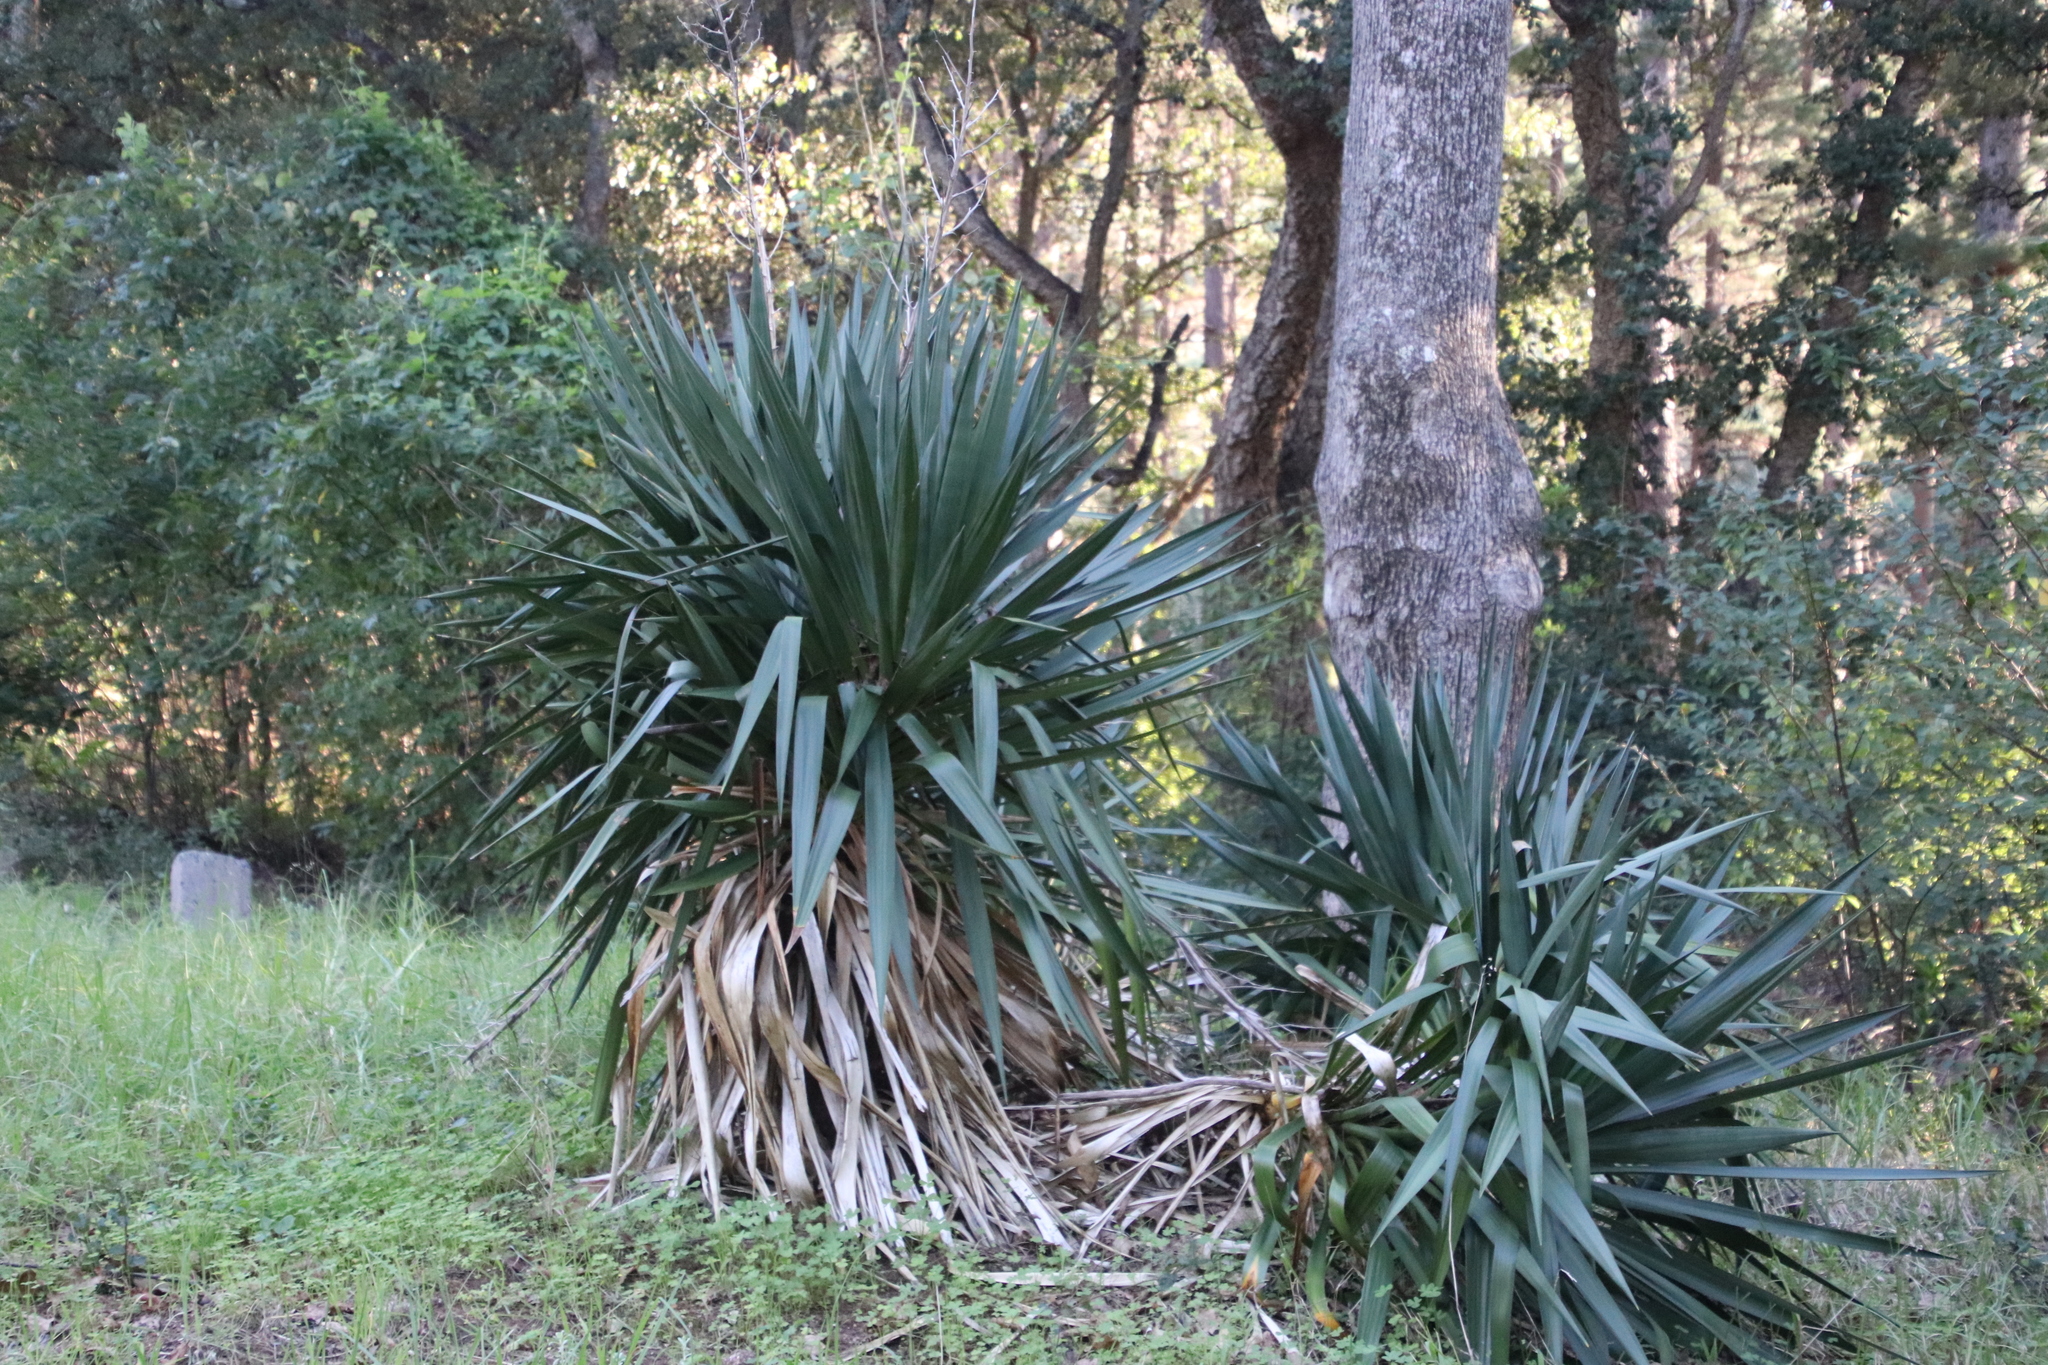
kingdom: Plantae
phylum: Tracheophyta
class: Liliopsida
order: Asparagales
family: Asparagaceae
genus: Yucca
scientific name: Yucca gloriosa
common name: Spanish-dagger
